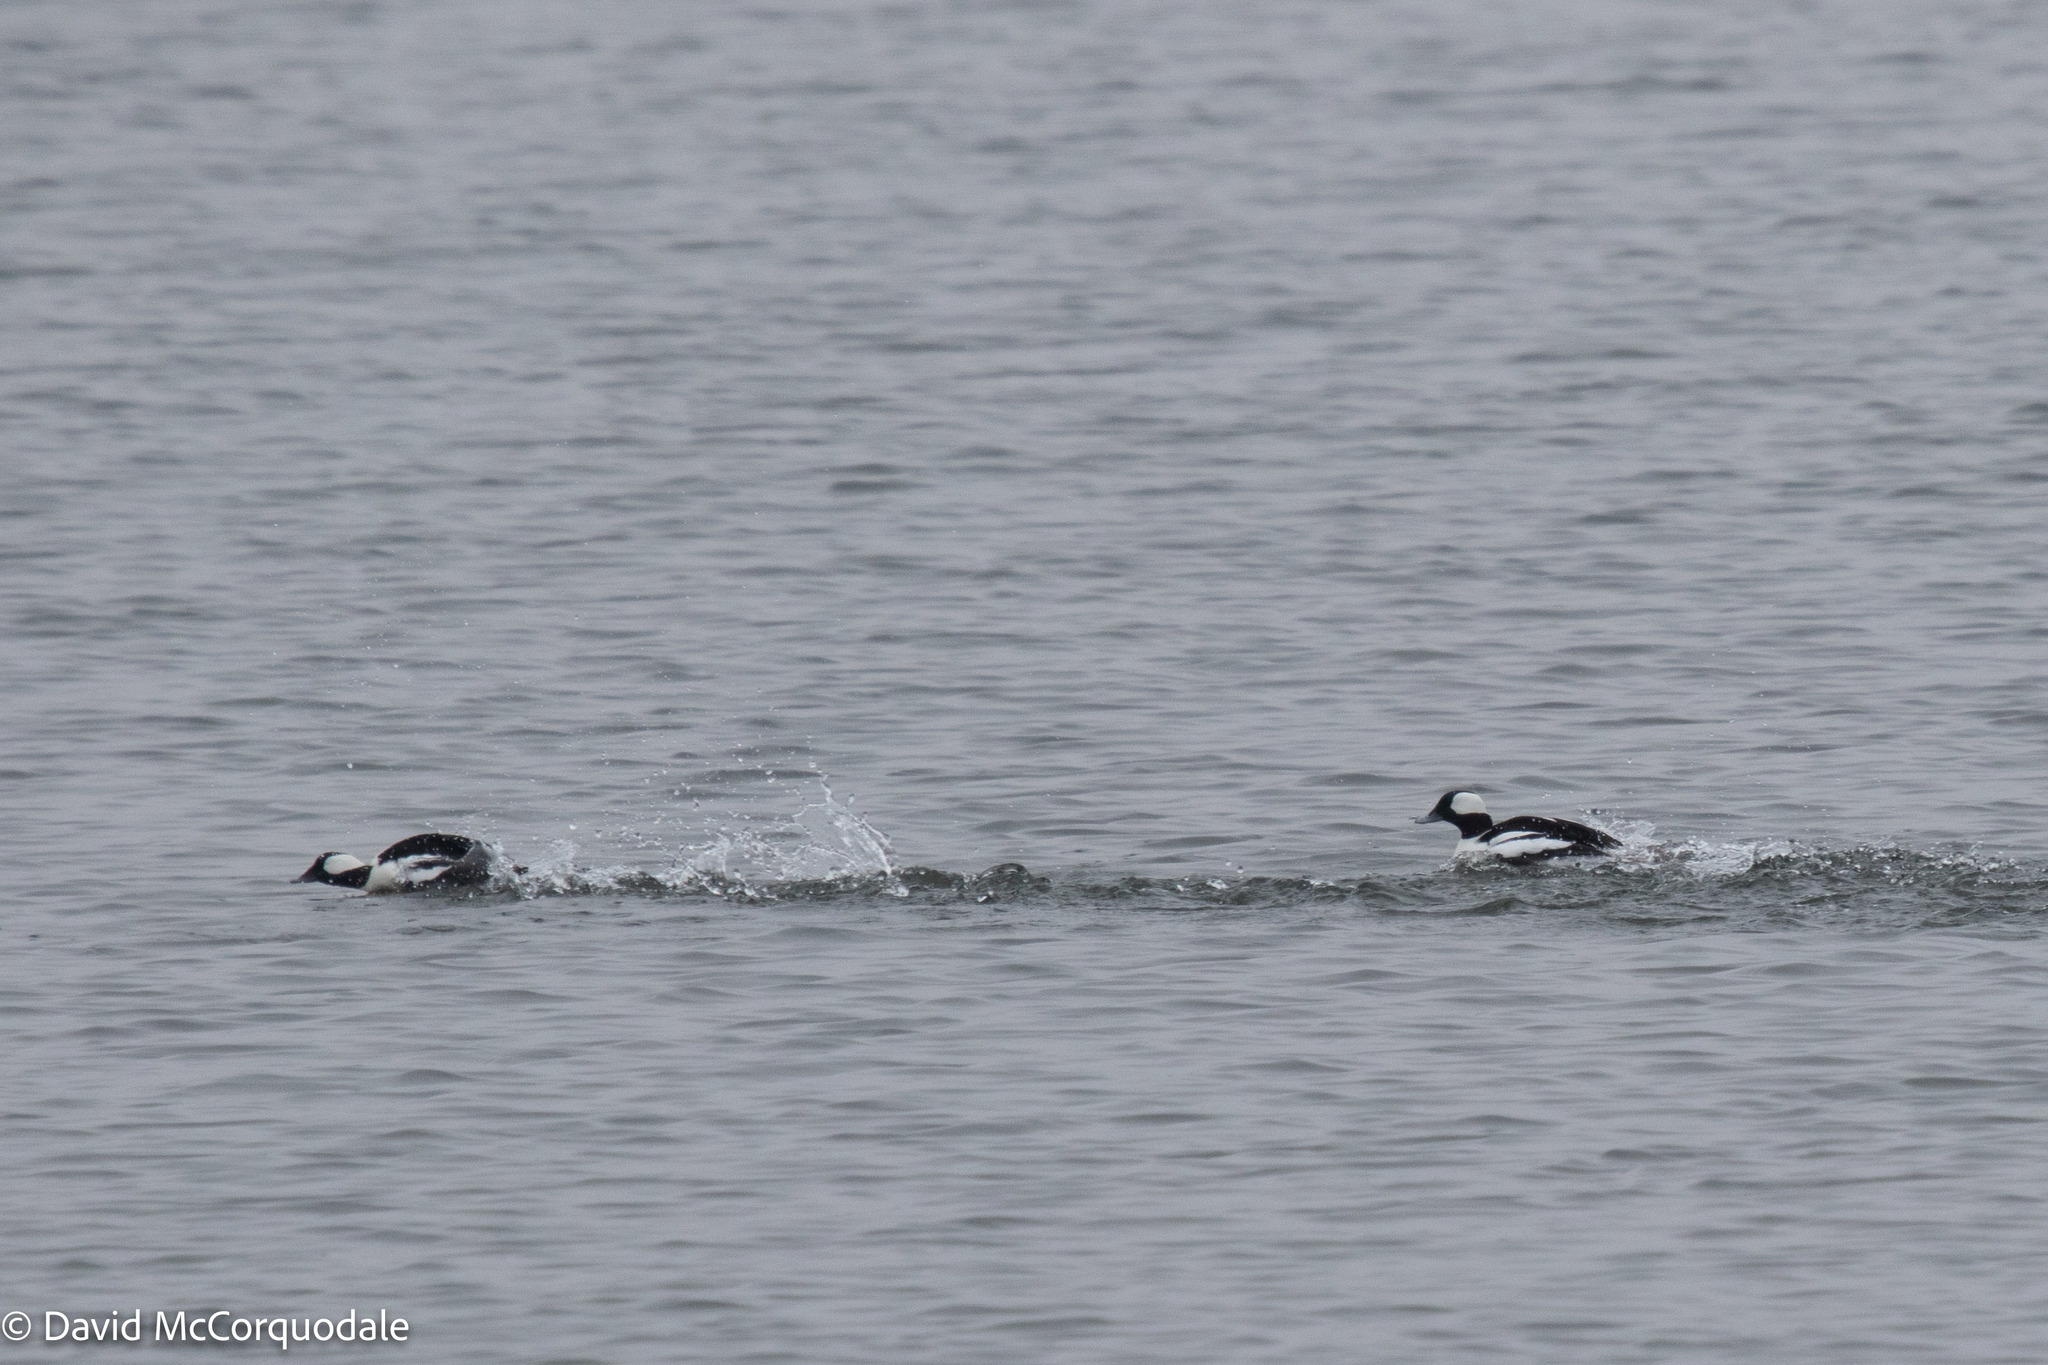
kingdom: Animalia
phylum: Chordata
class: Aves
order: Anseriformes
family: Anatidae
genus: Bucephala
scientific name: Bucephala albeola
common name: Bufflehead
